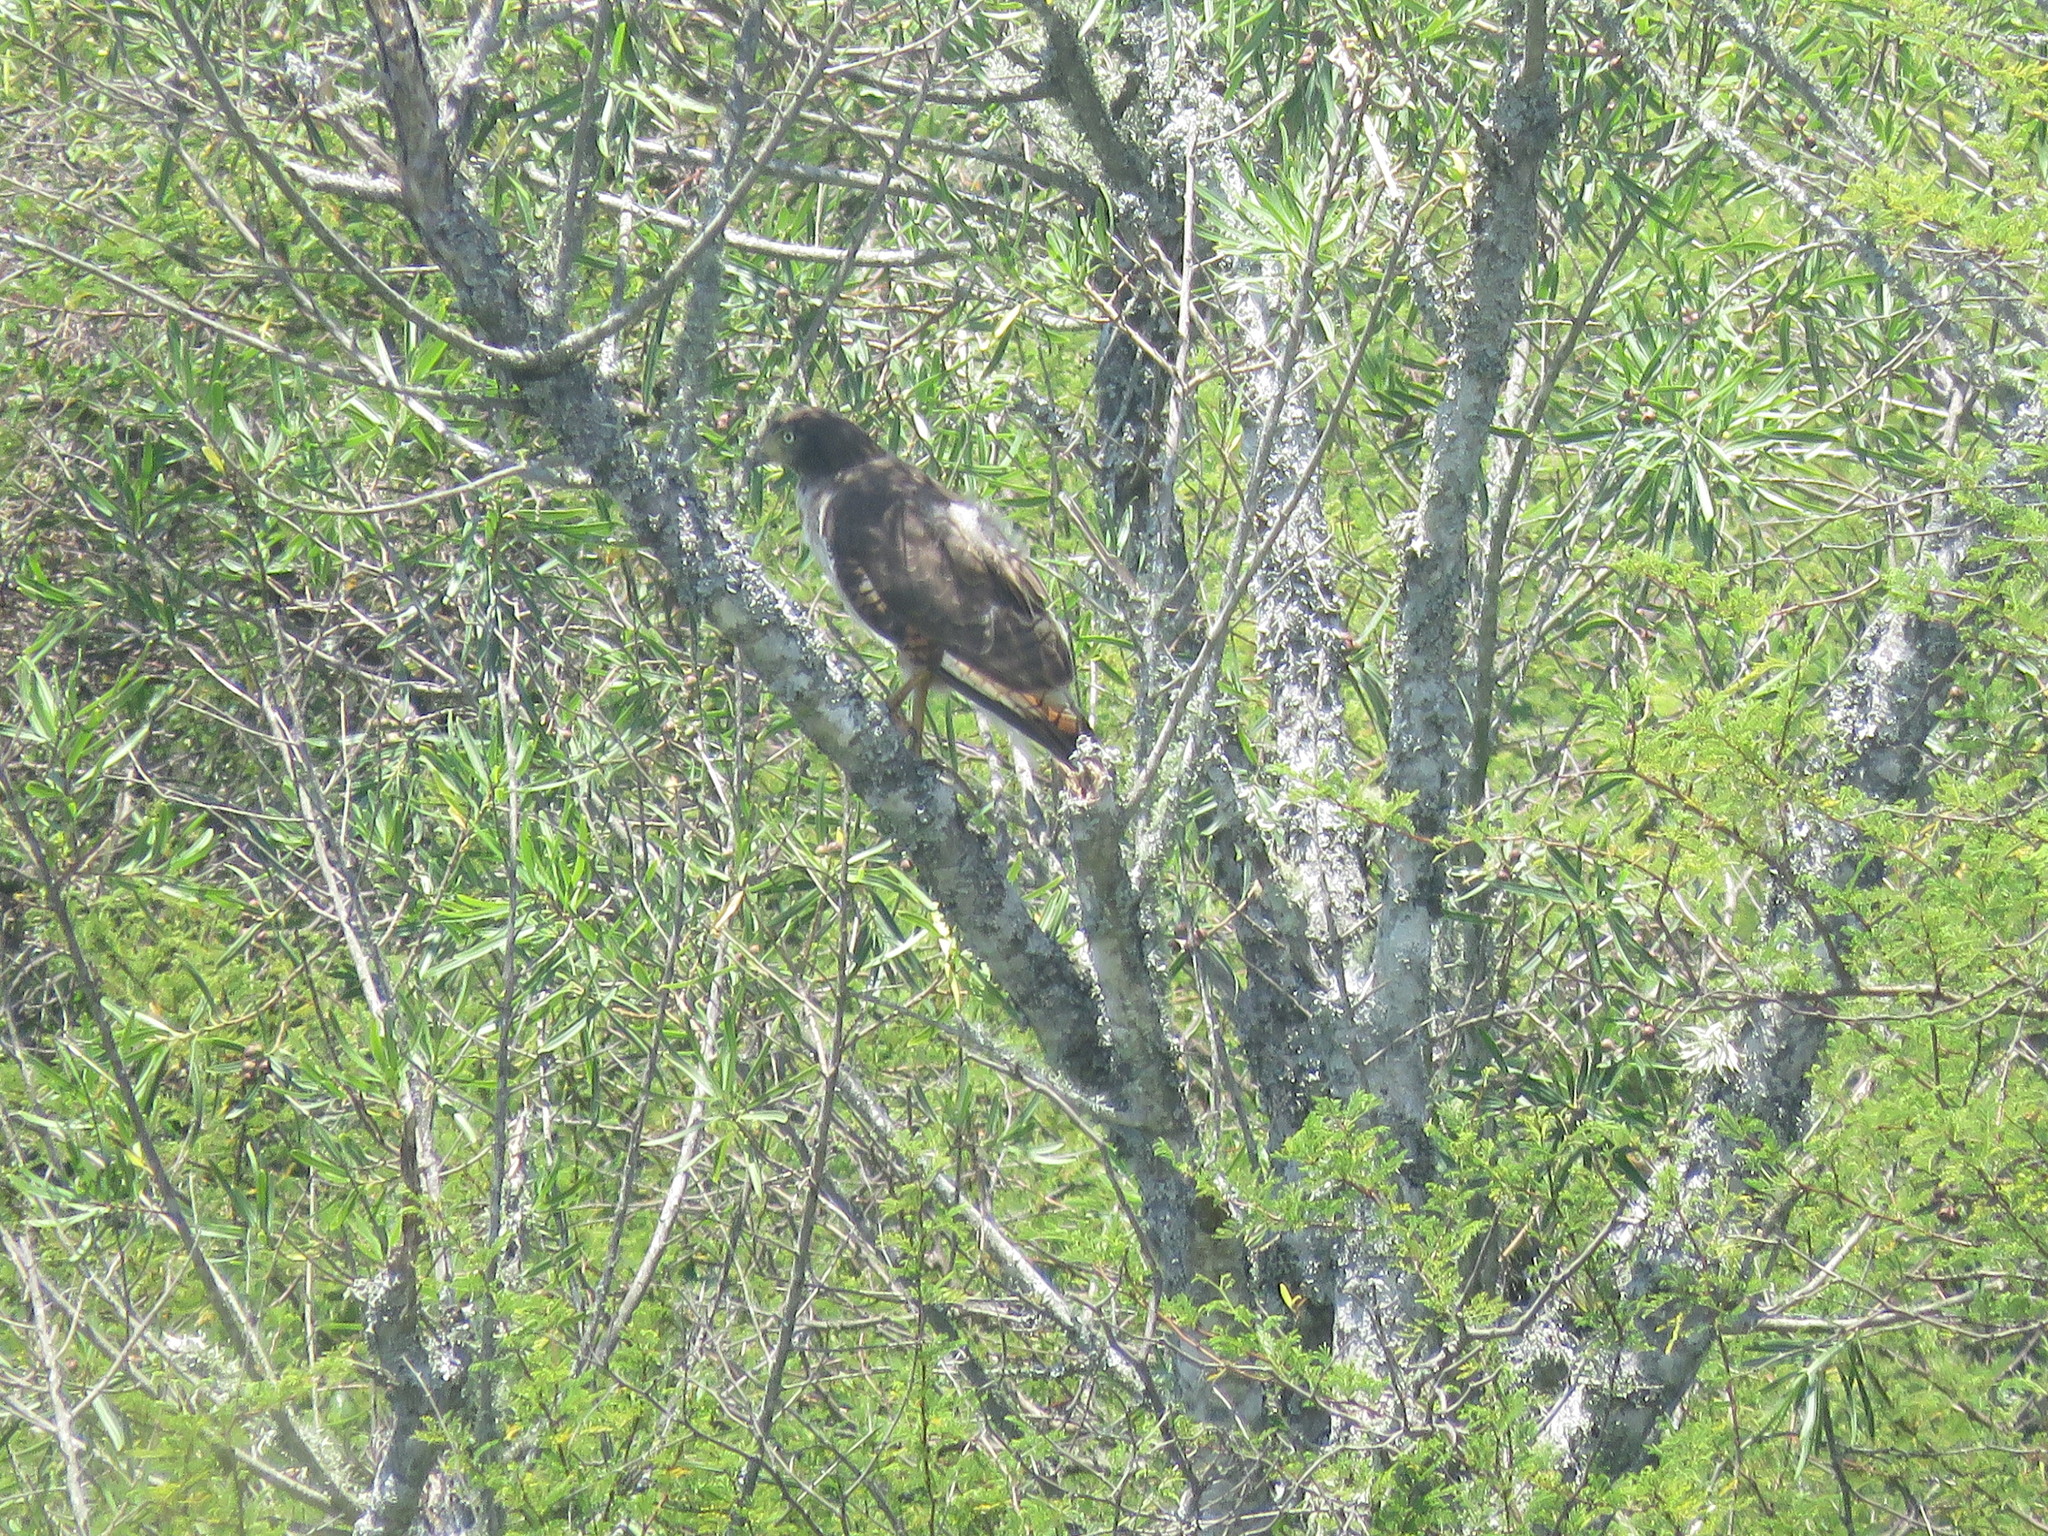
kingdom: Animalia
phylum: Chordata
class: Aves
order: Accipitriformes
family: Accipitridae
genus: Rupornis
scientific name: Rupornis magnirostris
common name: Roadside hawk
